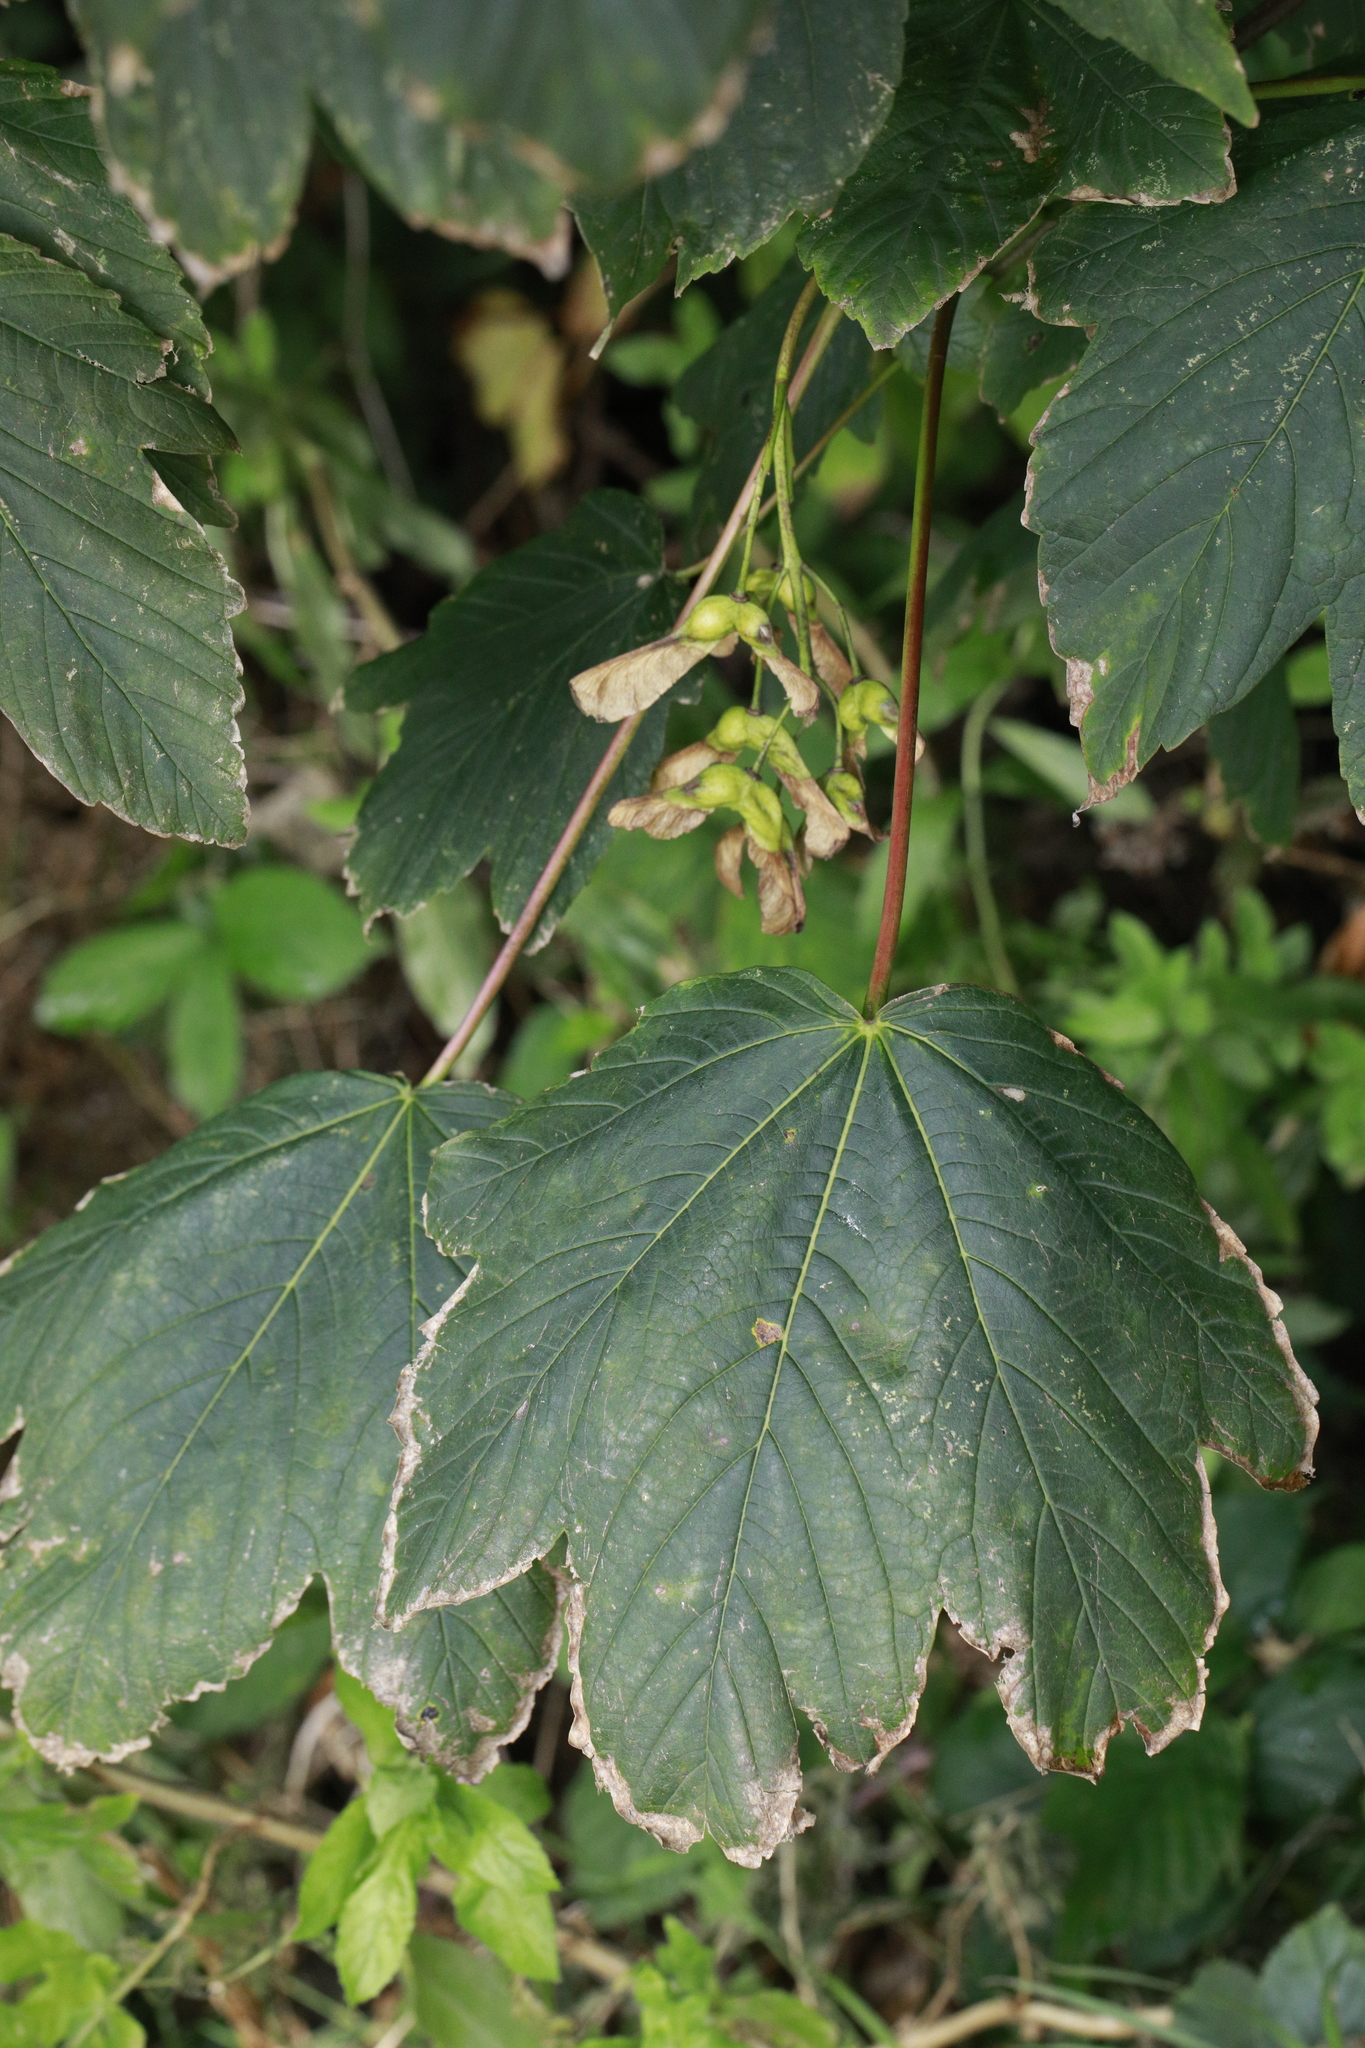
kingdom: Plantae
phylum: Tracheophyta
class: Magnoliopsida
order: Sapindales
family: Sapindaceae
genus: Acer
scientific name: Acer pseudoplatanus
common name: Sycamore
